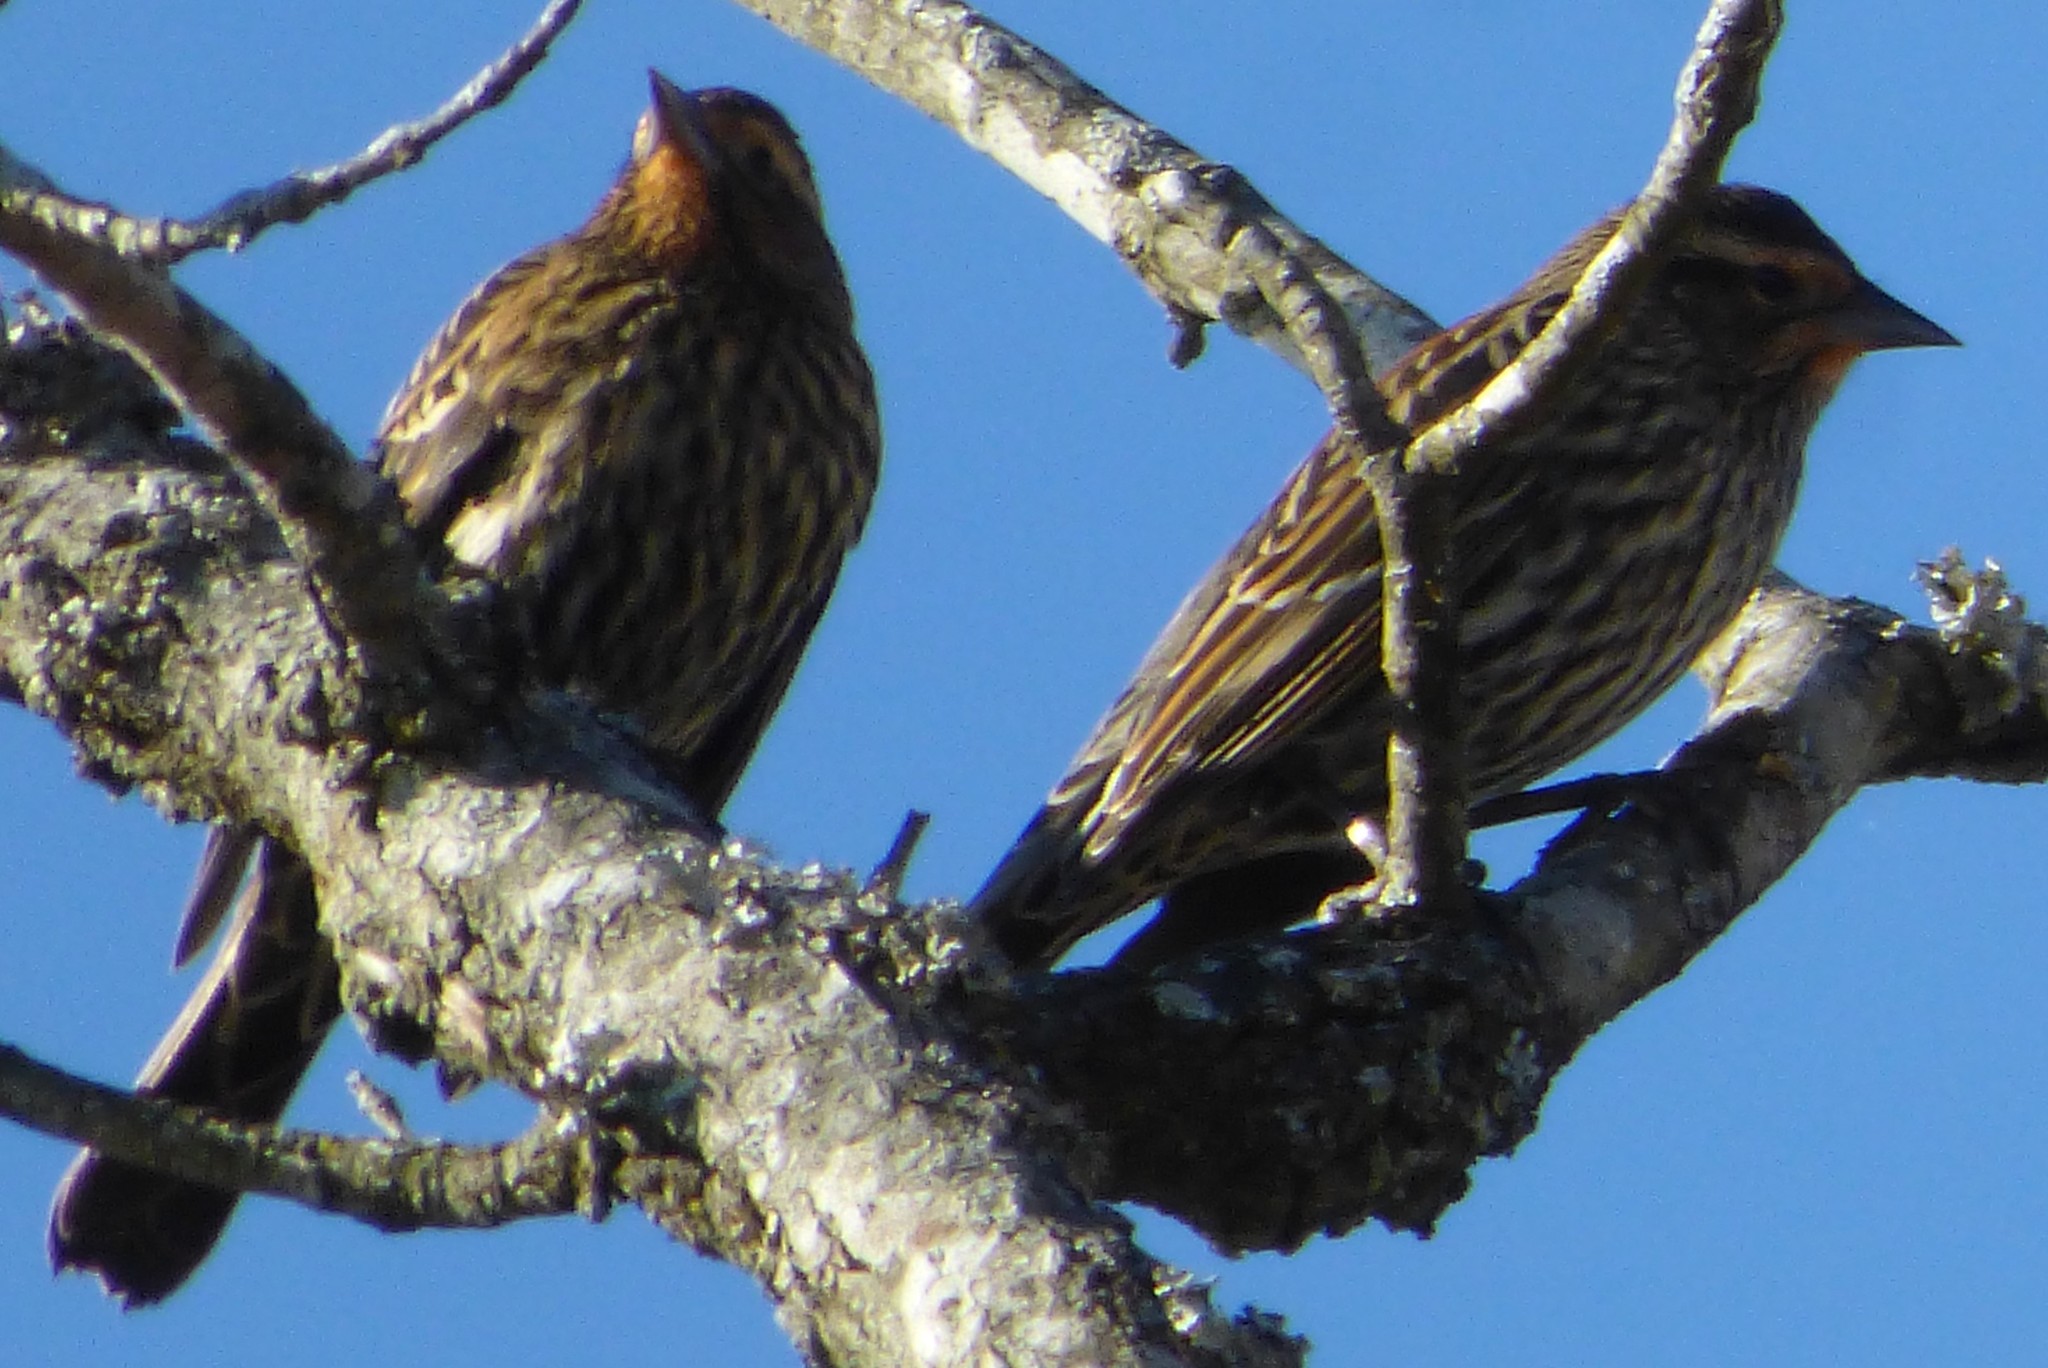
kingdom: Animalia
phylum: Chordata
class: Aves
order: Passeriformes
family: Icteridae
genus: Agelaius
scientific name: Agelaius phoeniceus
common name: Red-winged blackbird
